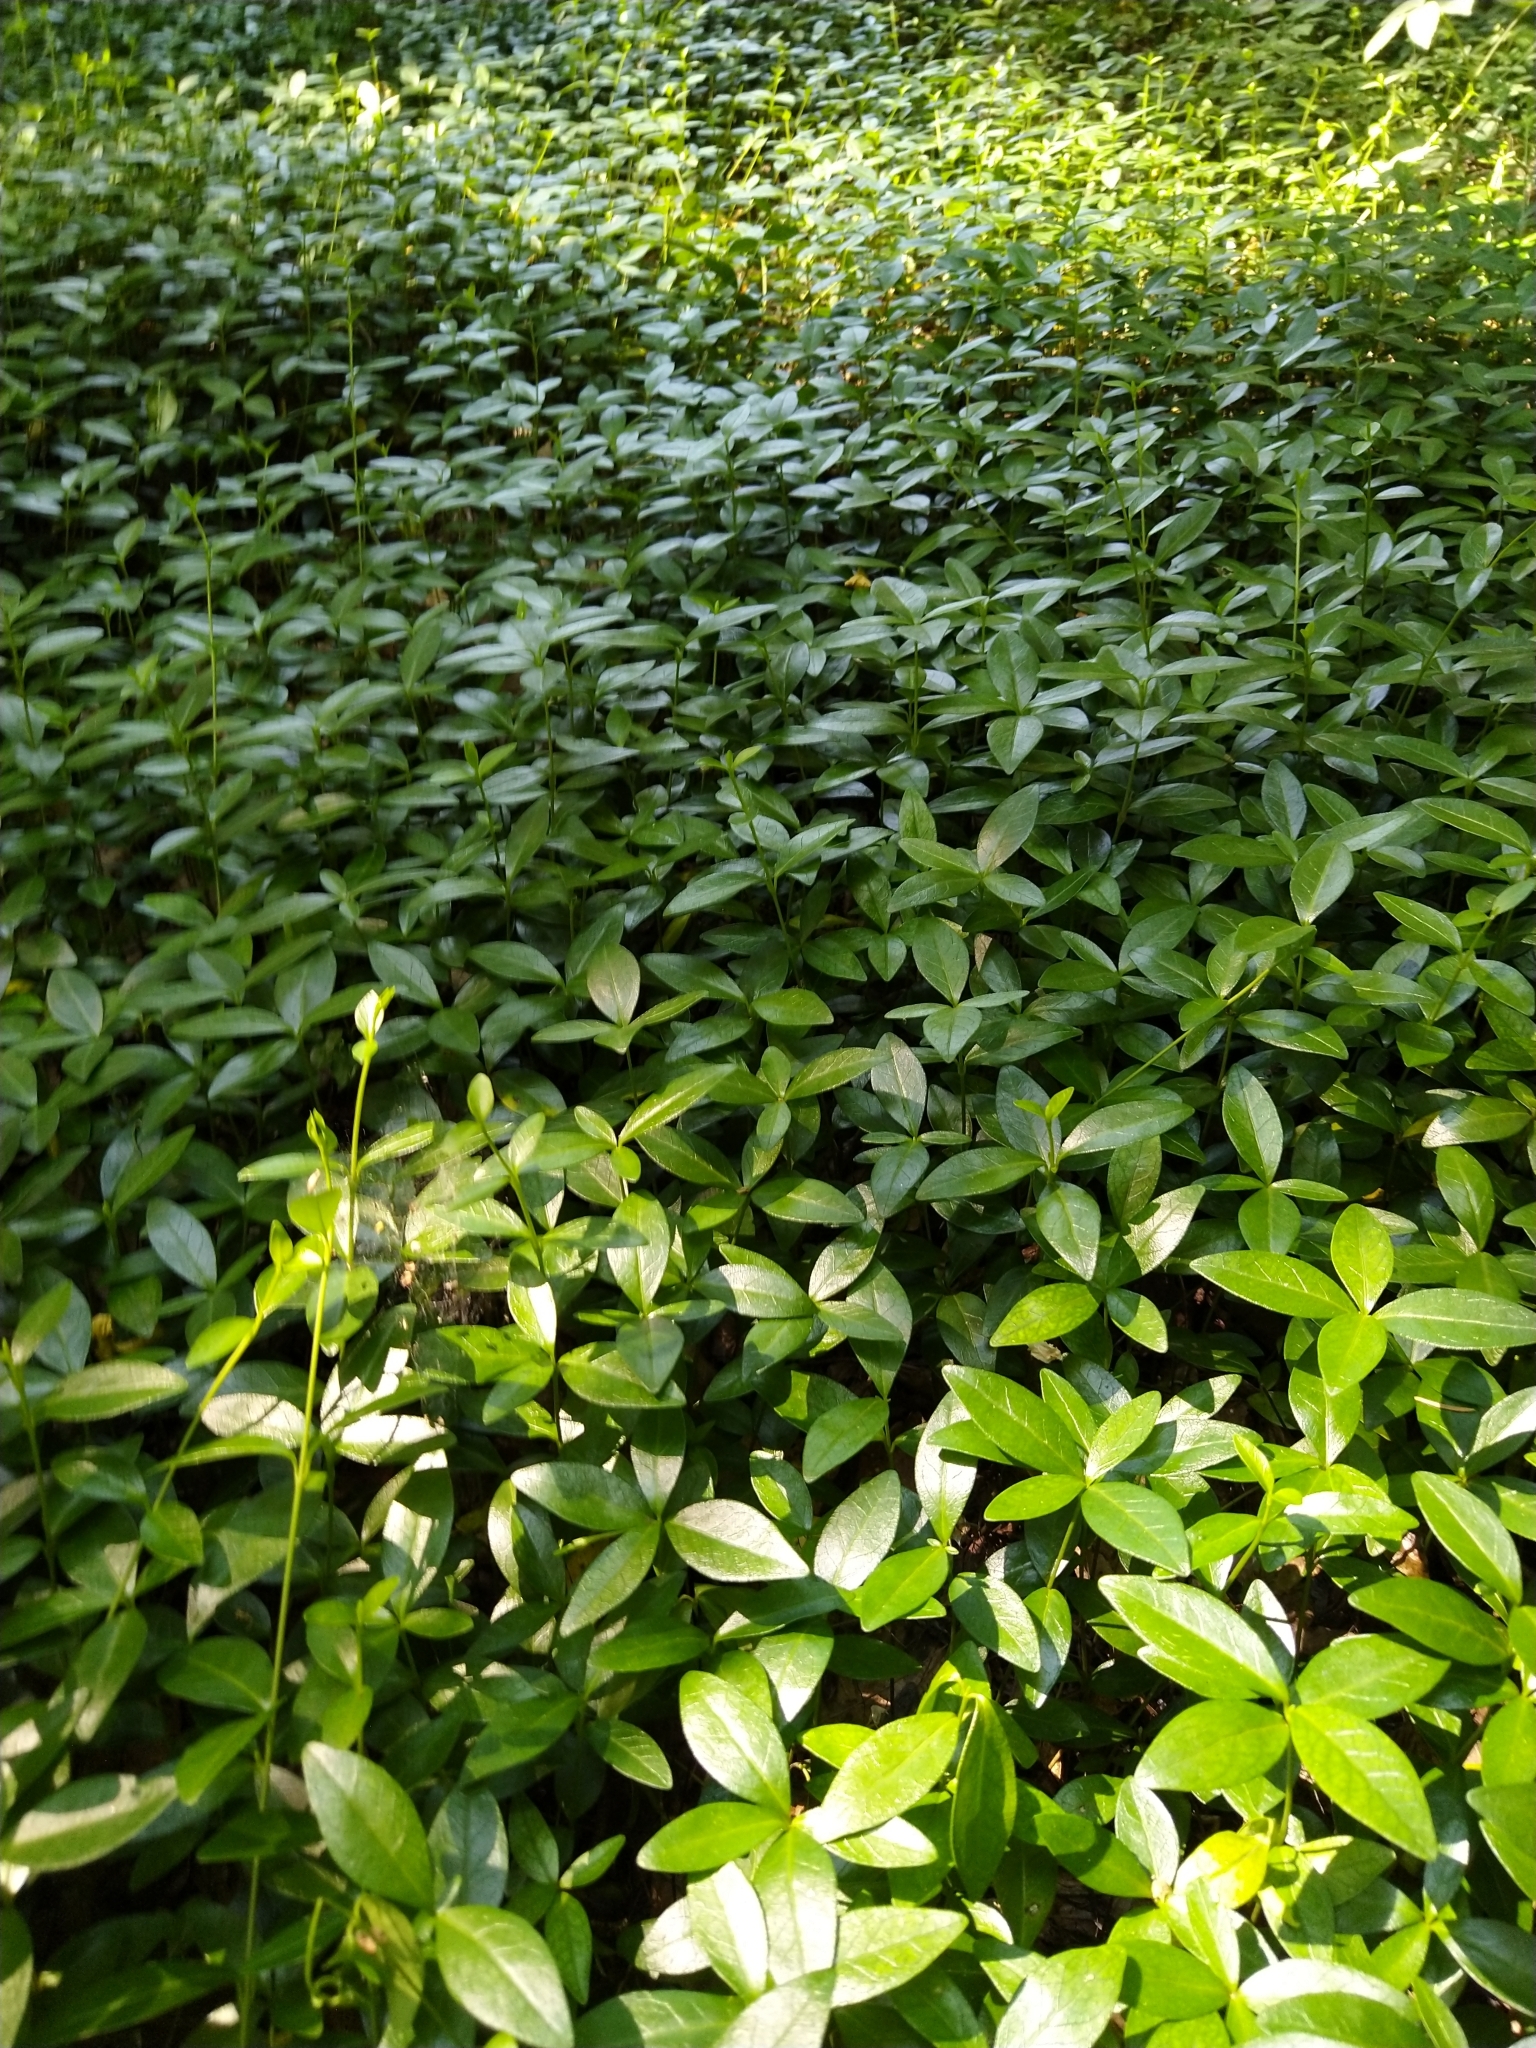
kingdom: Plantae
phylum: Tracheophyta
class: Magnoliopsida
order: Gentianales
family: Apocynaceae
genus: Vinca
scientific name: Vinca minor
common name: Lesser periwinkle
